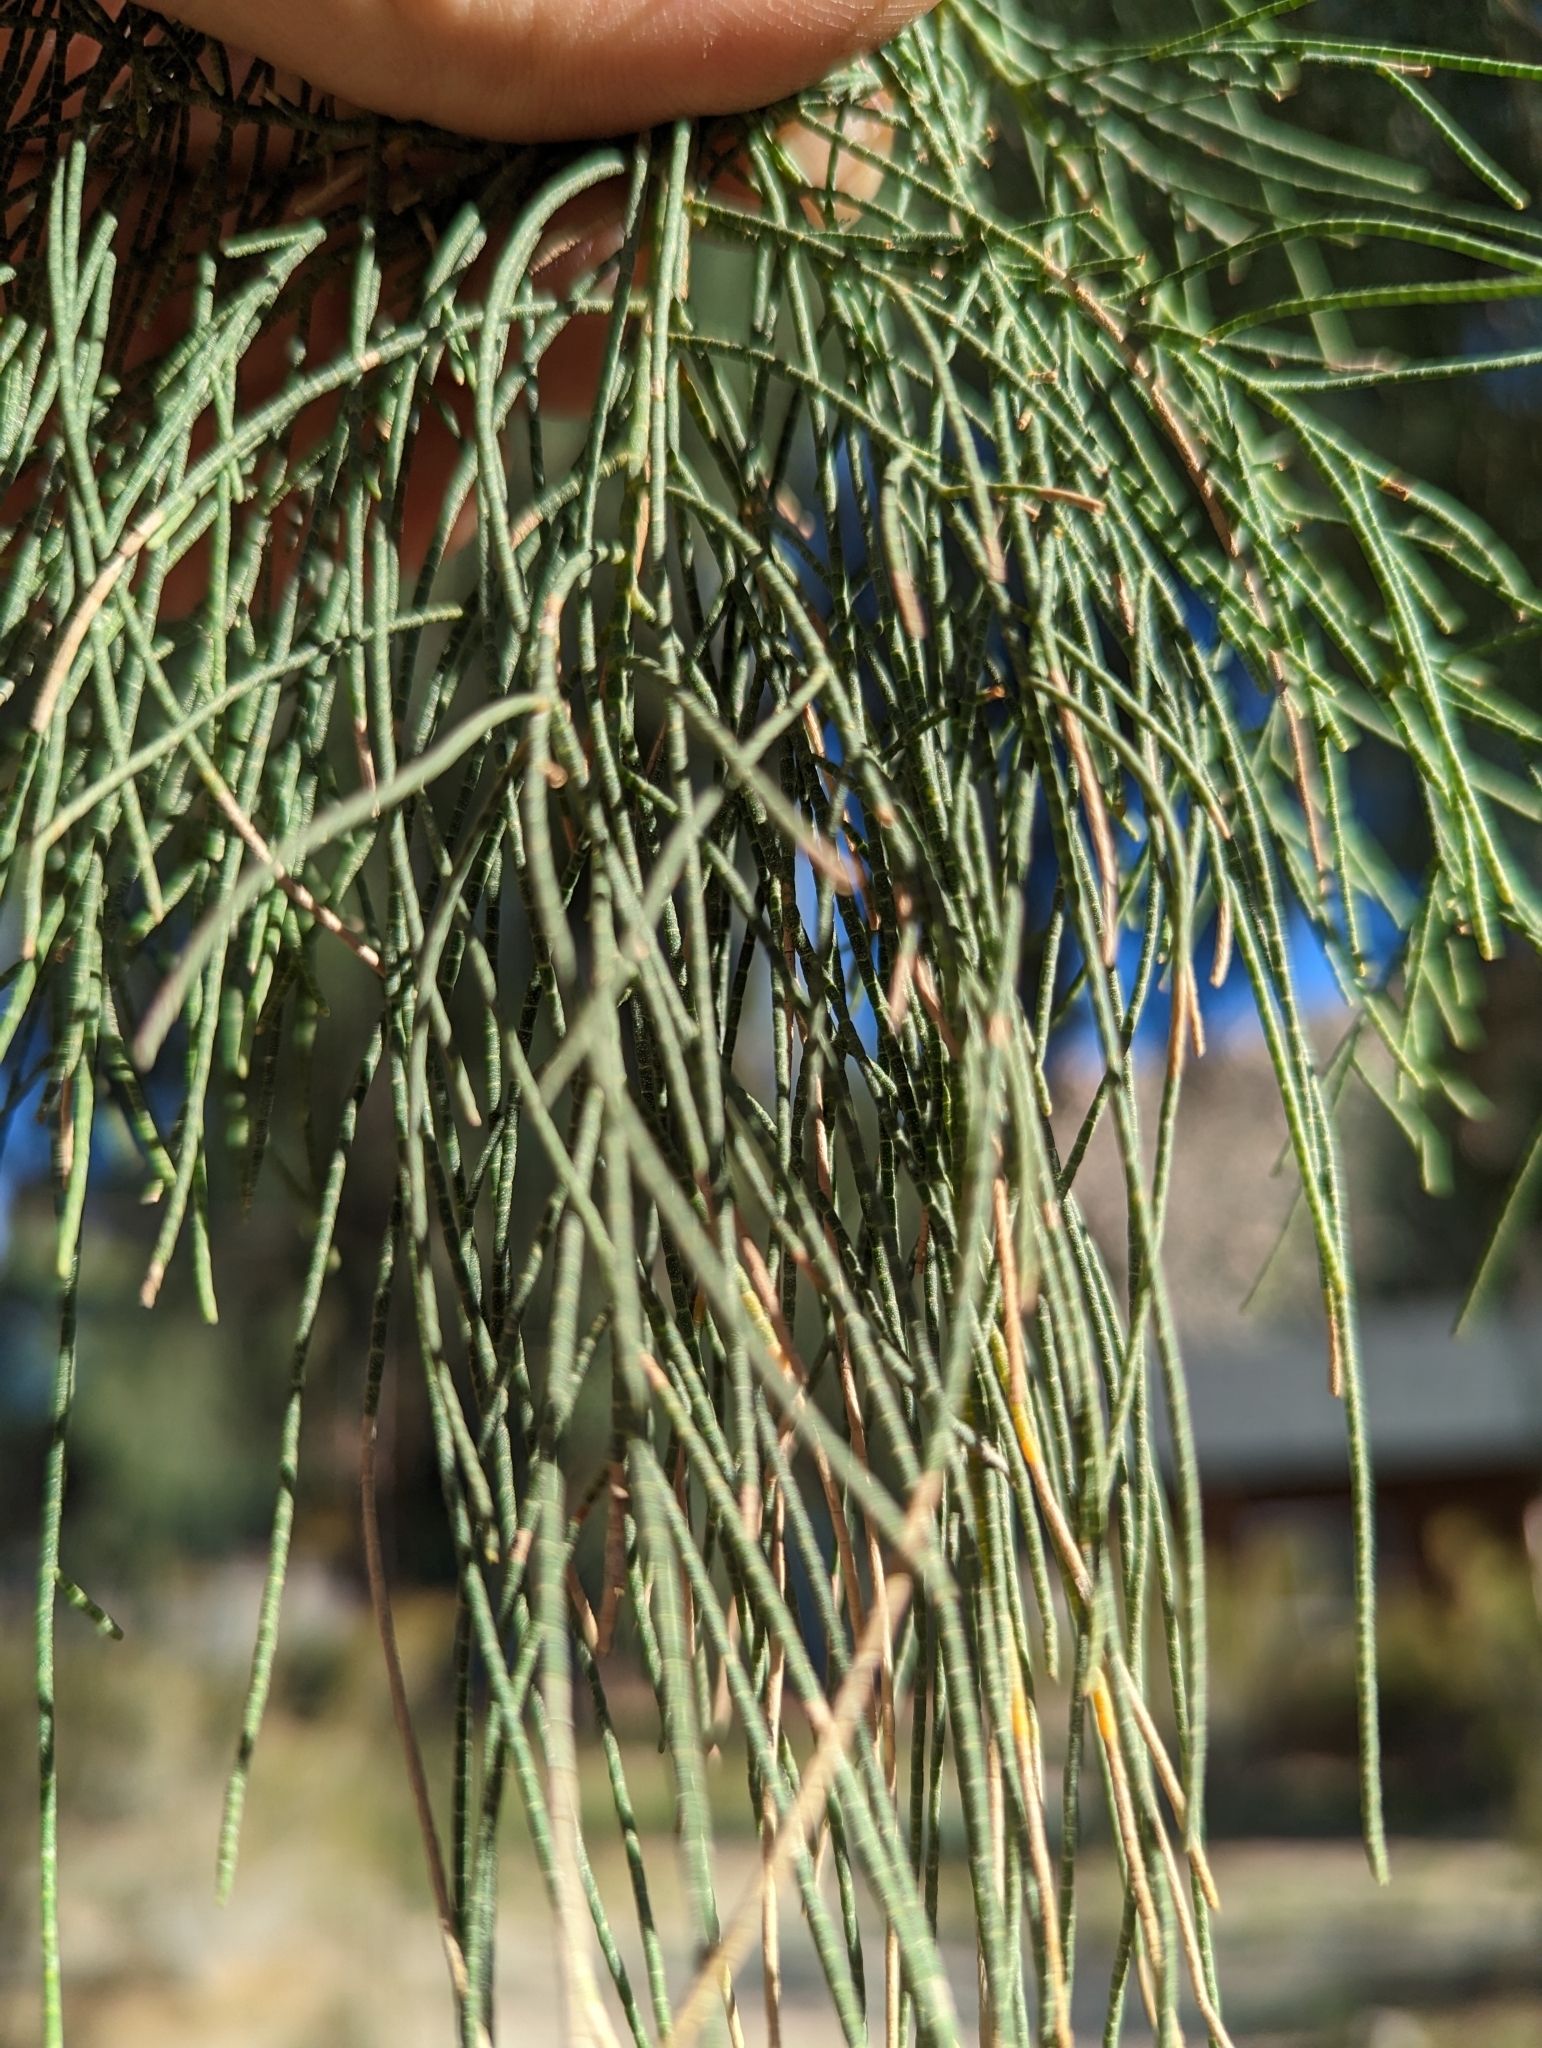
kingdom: Plantae
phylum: Tracheophyta
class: Magnoliopsida
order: Caryophyllales
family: Tamaricaceae
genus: Tamarix
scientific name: Tamarix aphylla
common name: Athel tamarisk
